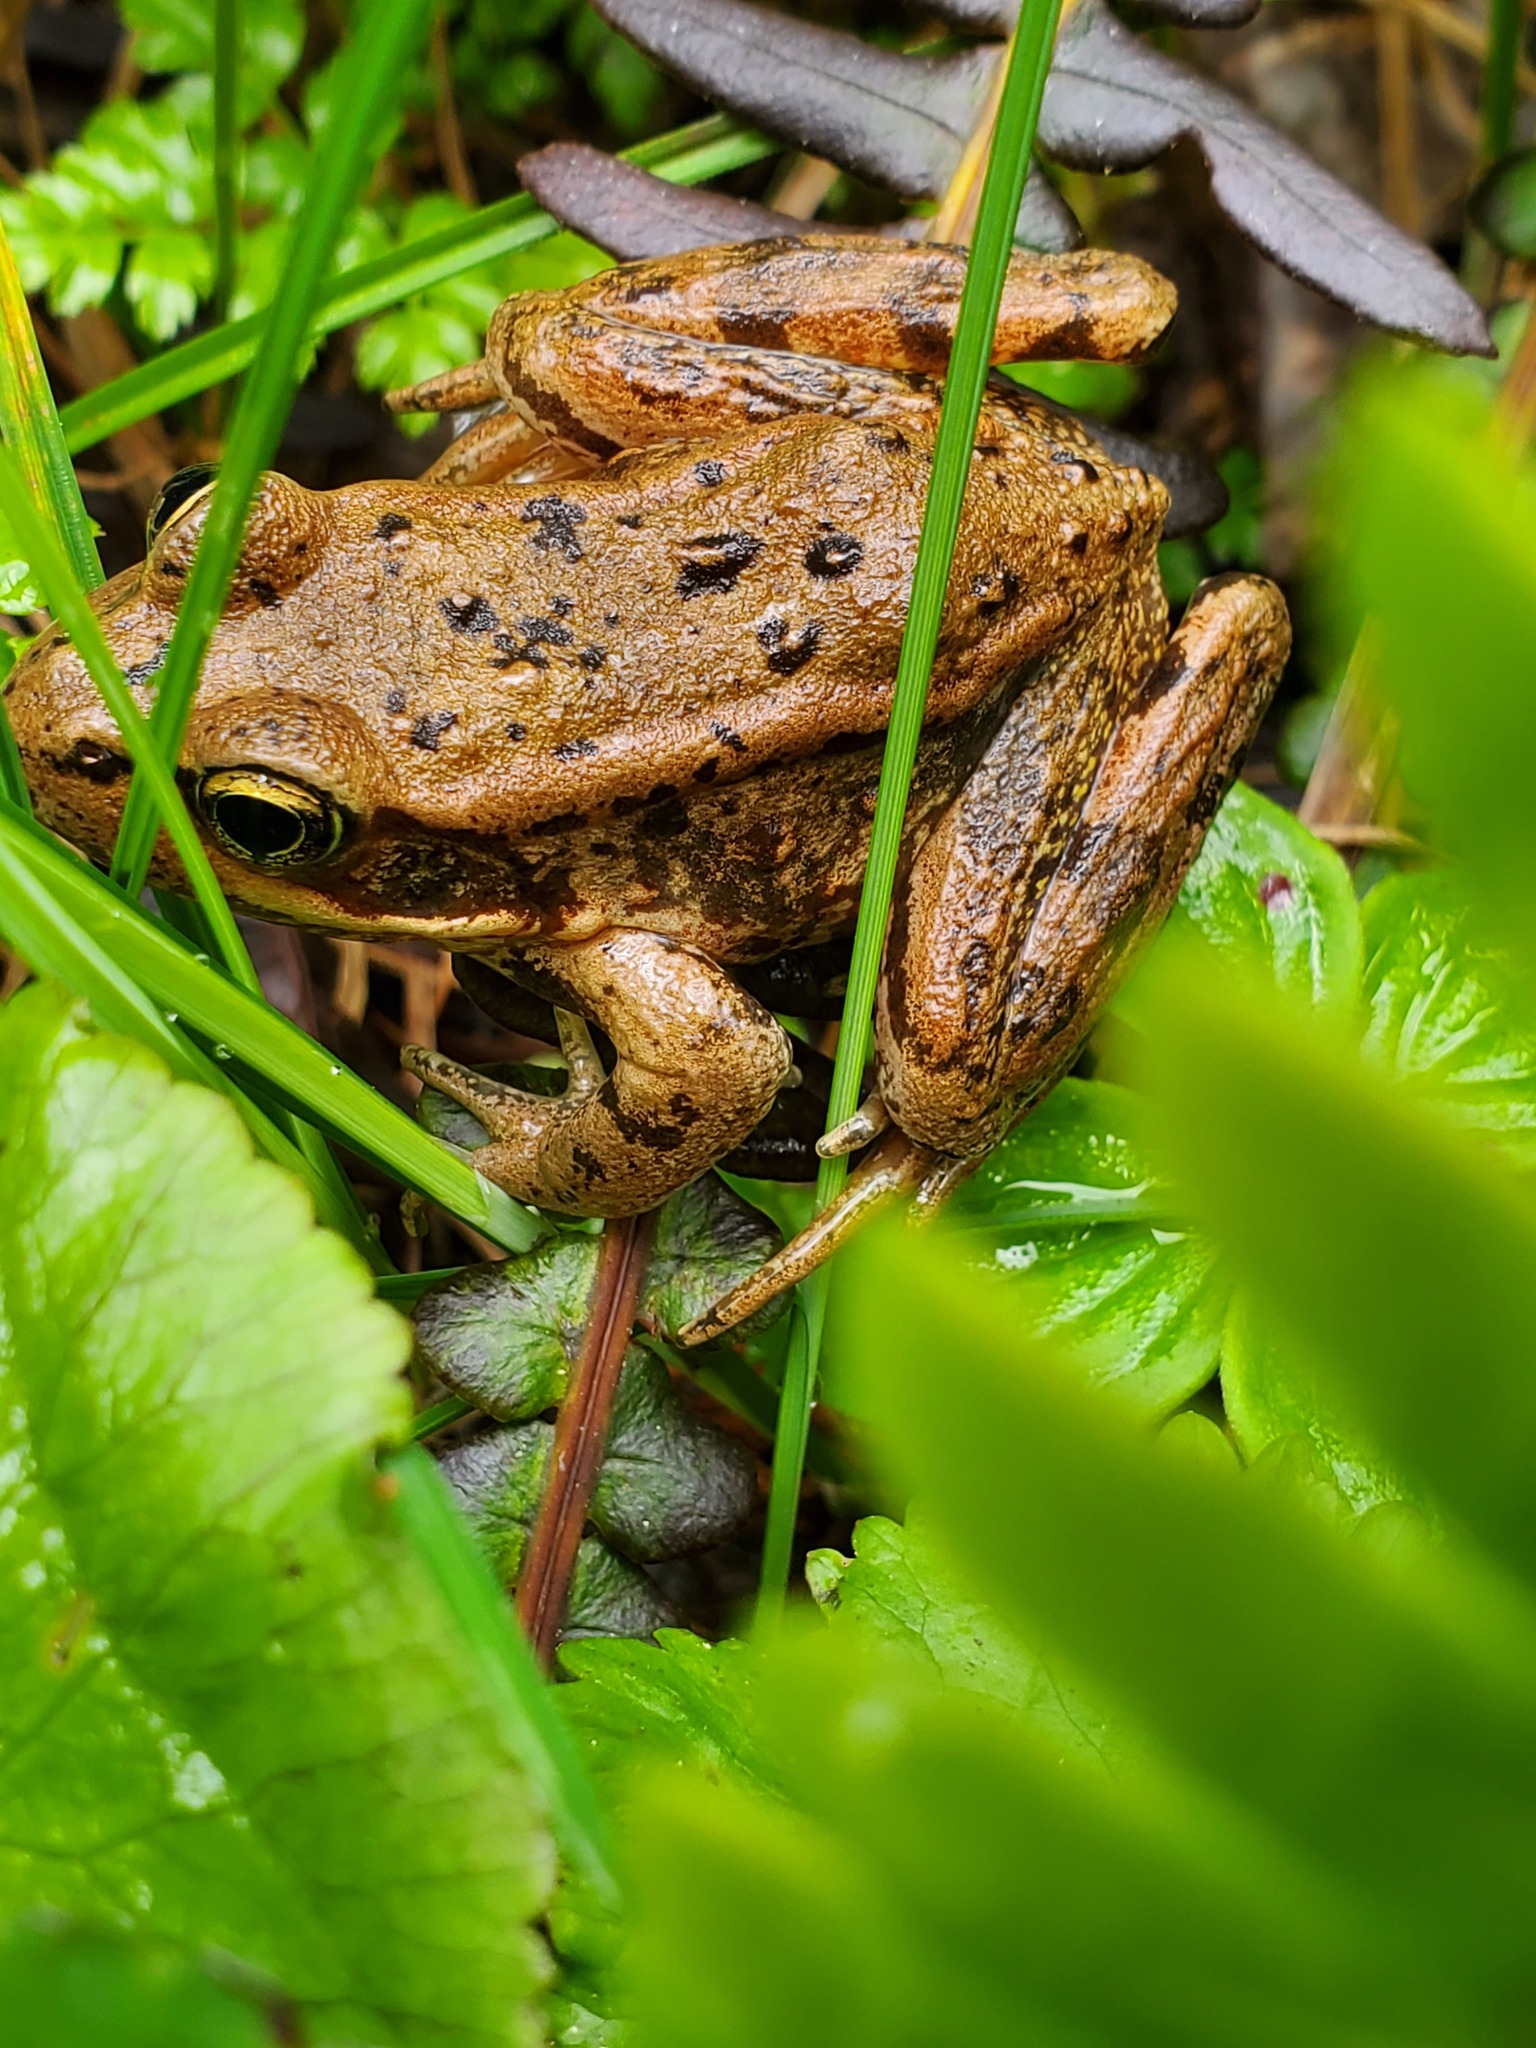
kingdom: Animalia
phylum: Chordata
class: Amphibia
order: Anura
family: Ranidae
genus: Rana
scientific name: Rana aurora
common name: Red-legged frog
